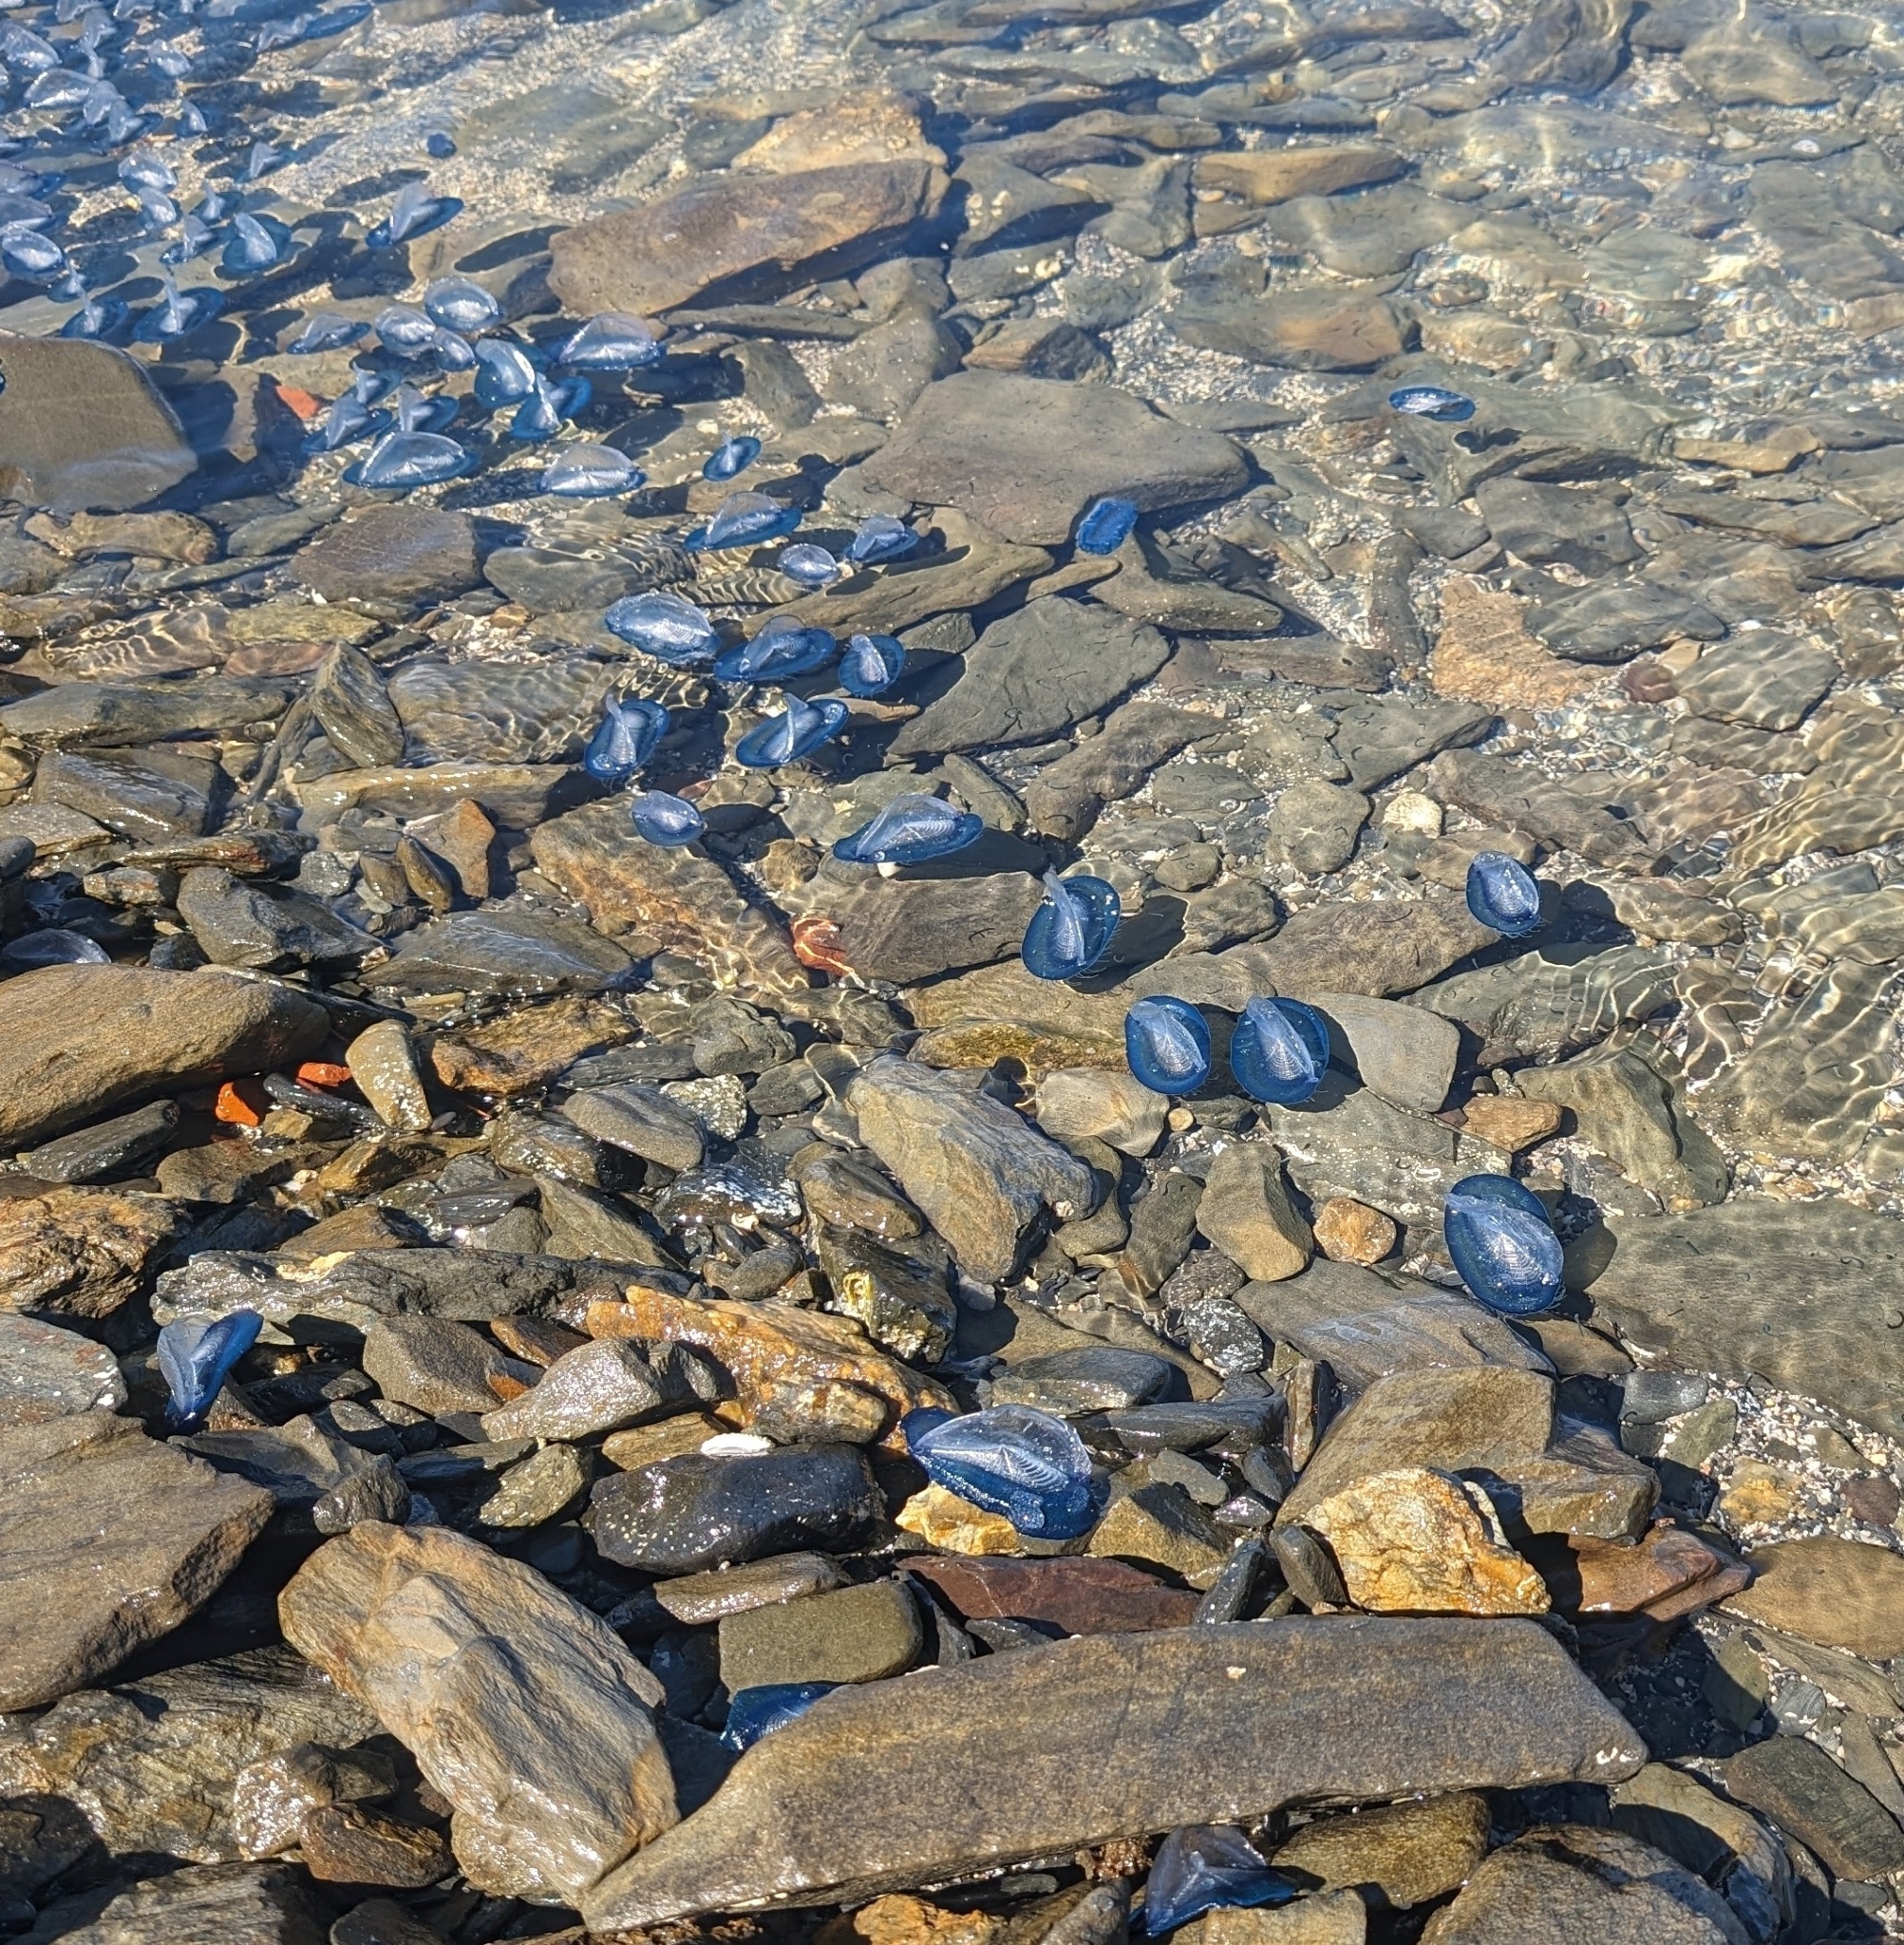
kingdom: Animalia
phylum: Cnidaria
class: Hydrozoa
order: Anthoathecata
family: Porpitidae
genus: Velella
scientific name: Velella velella
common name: By-the-wind-sailor
